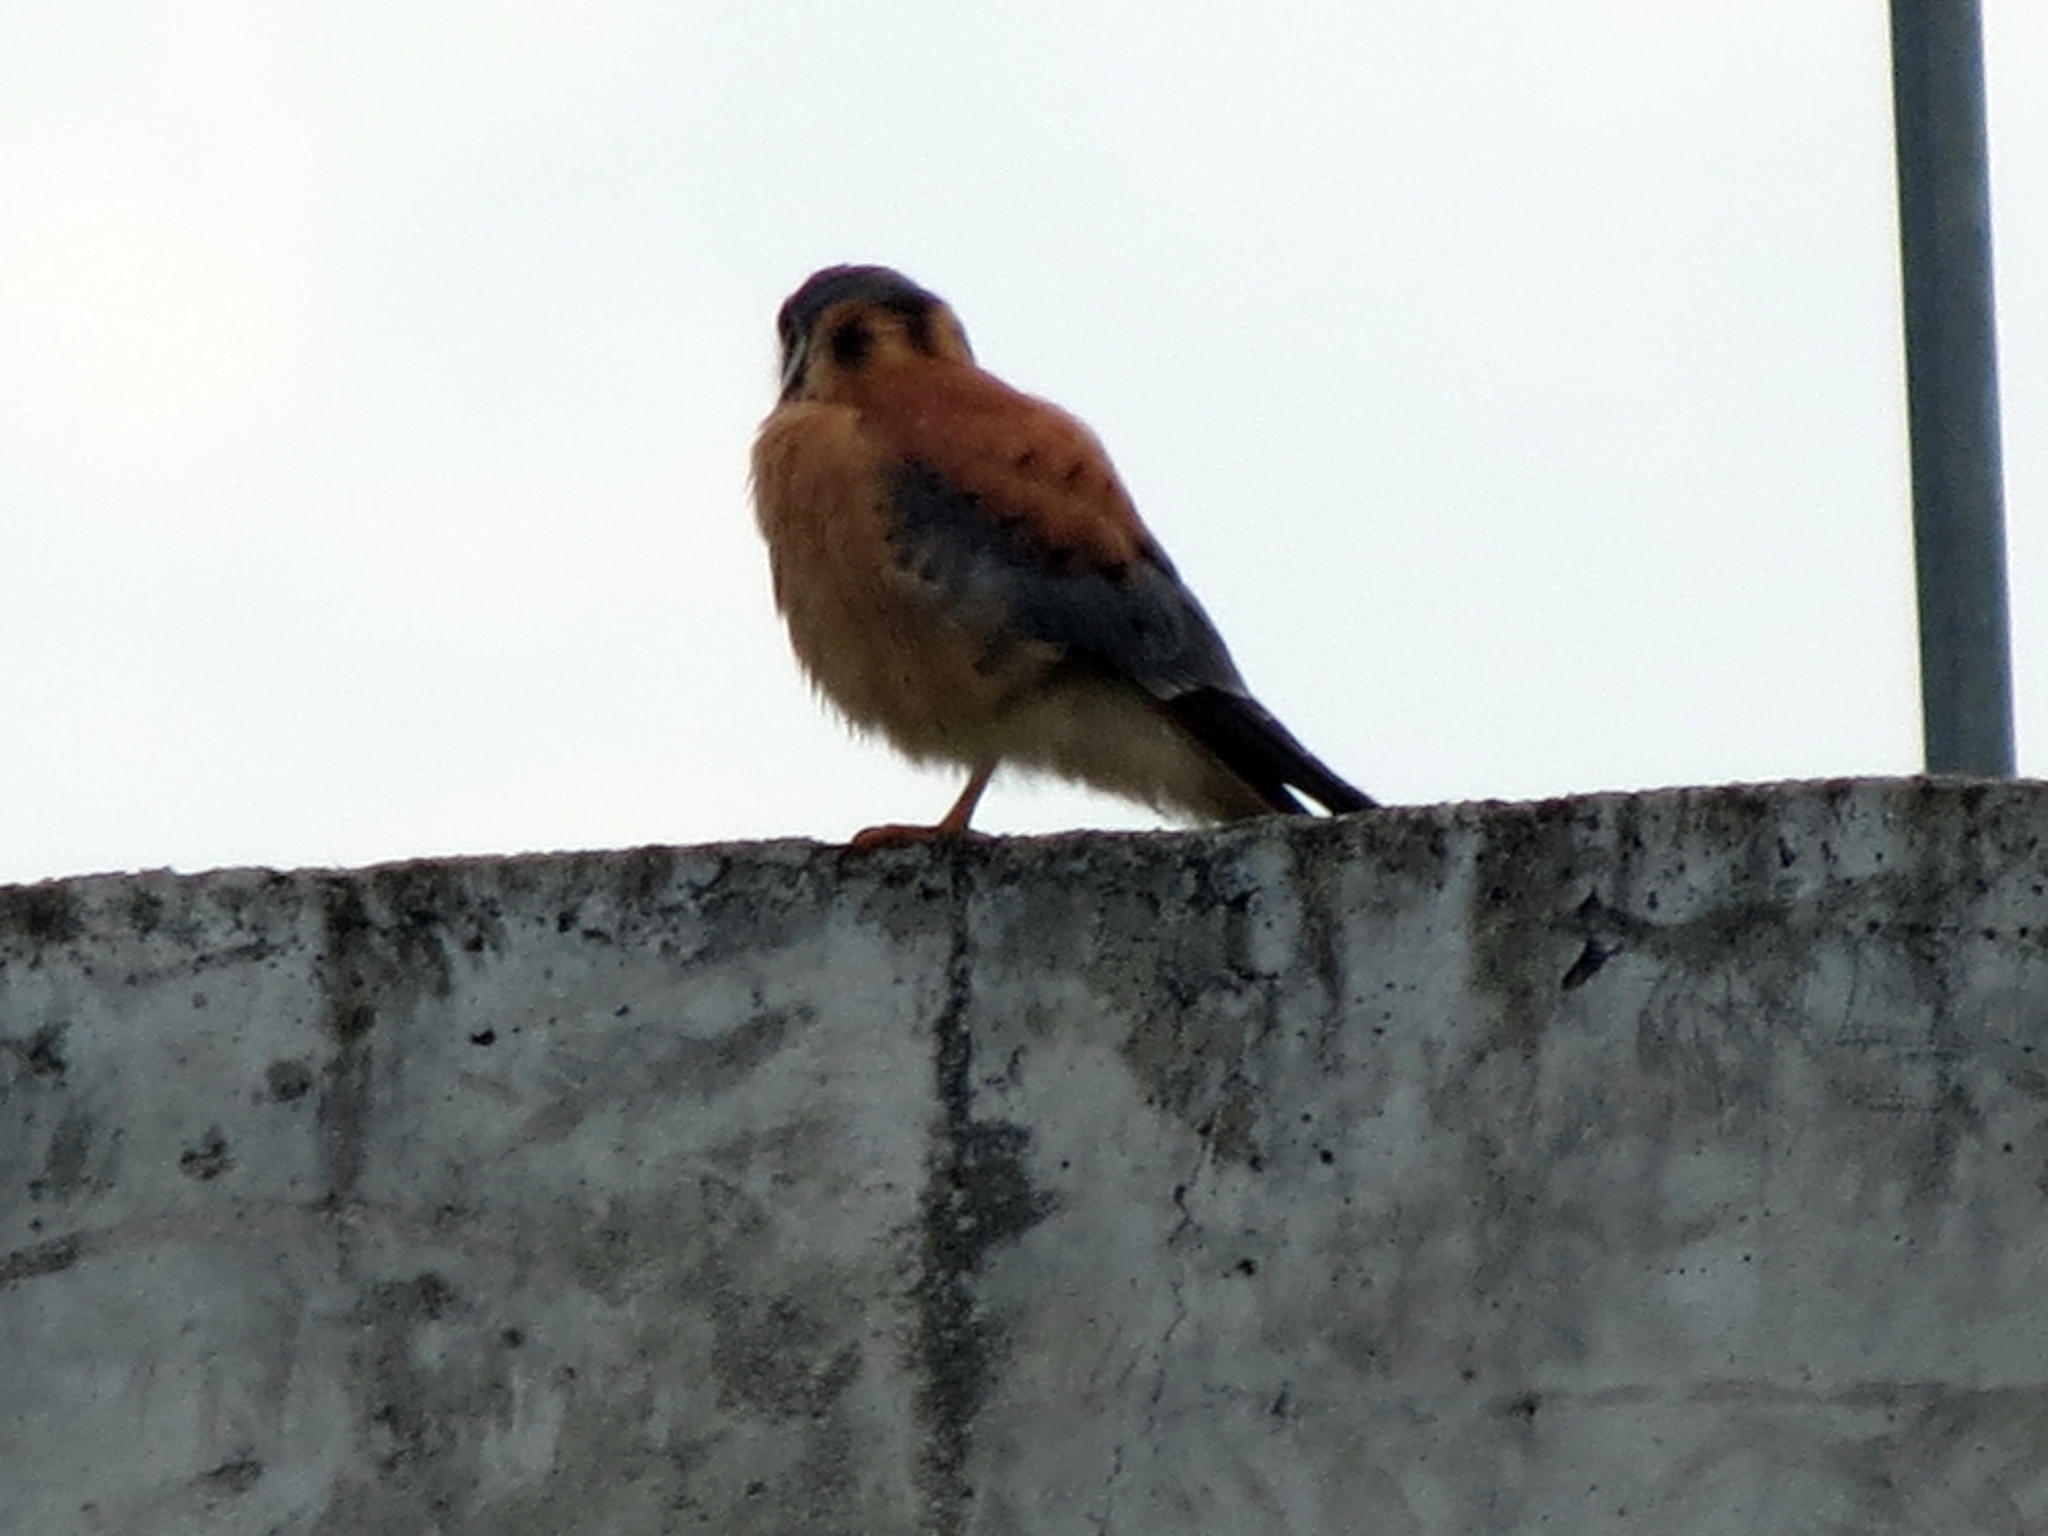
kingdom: Animalia
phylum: Chordata
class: Aves
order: Falconiformes
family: Falconidae
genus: Falco
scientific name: Falco sparverius
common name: American kestrel
